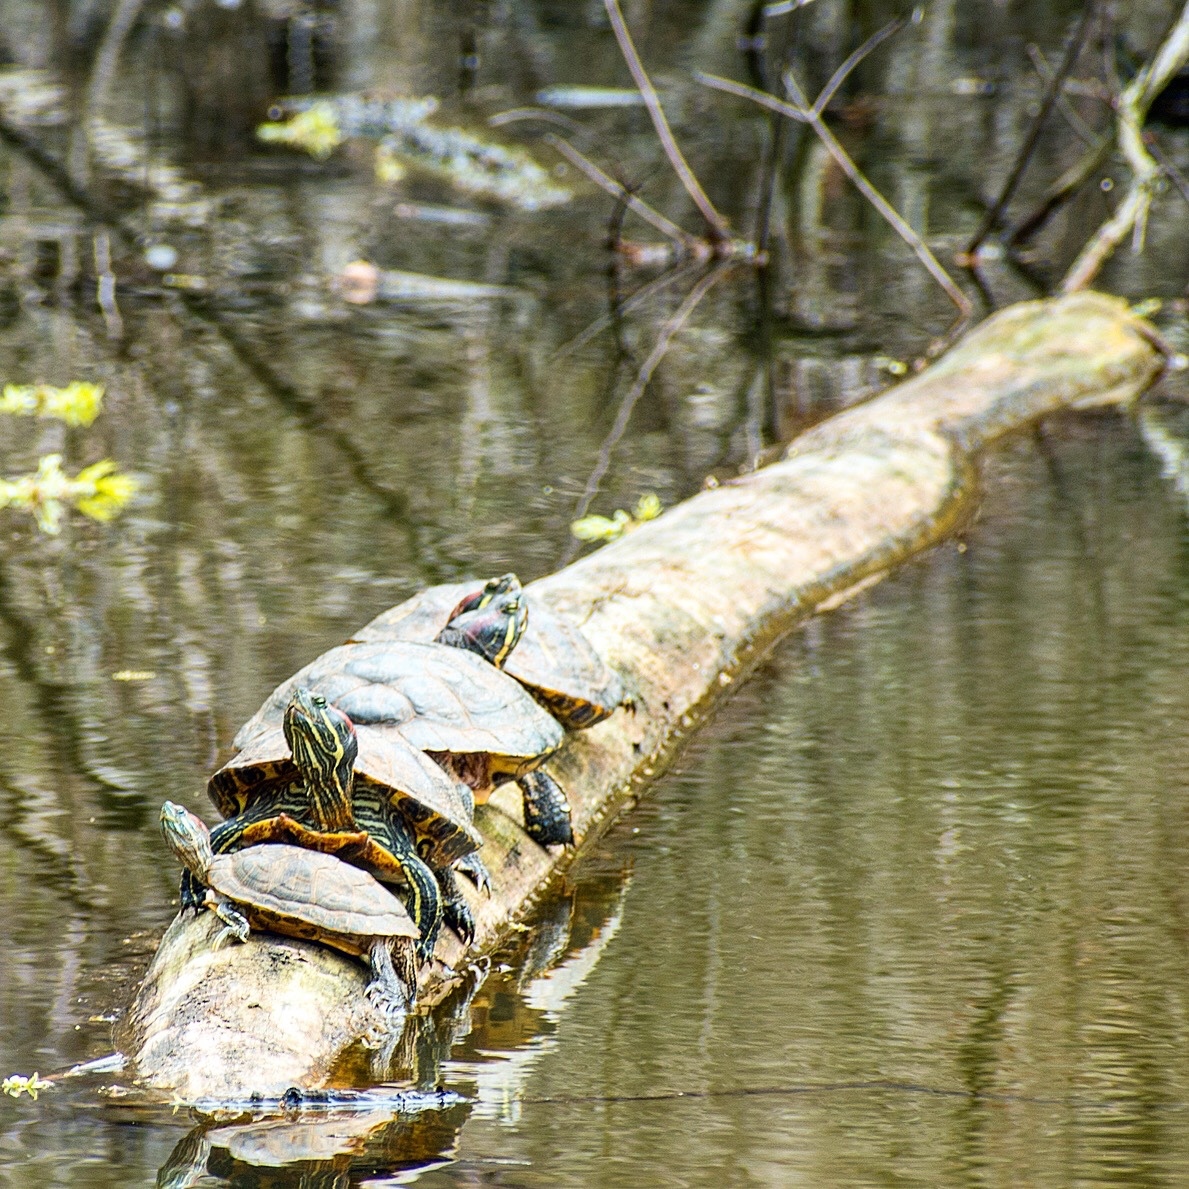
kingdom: Animalia
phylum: Chordata
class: Testudines
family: Emydidae
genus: Trachemys
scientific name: Trachemys scripta
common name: Slider
